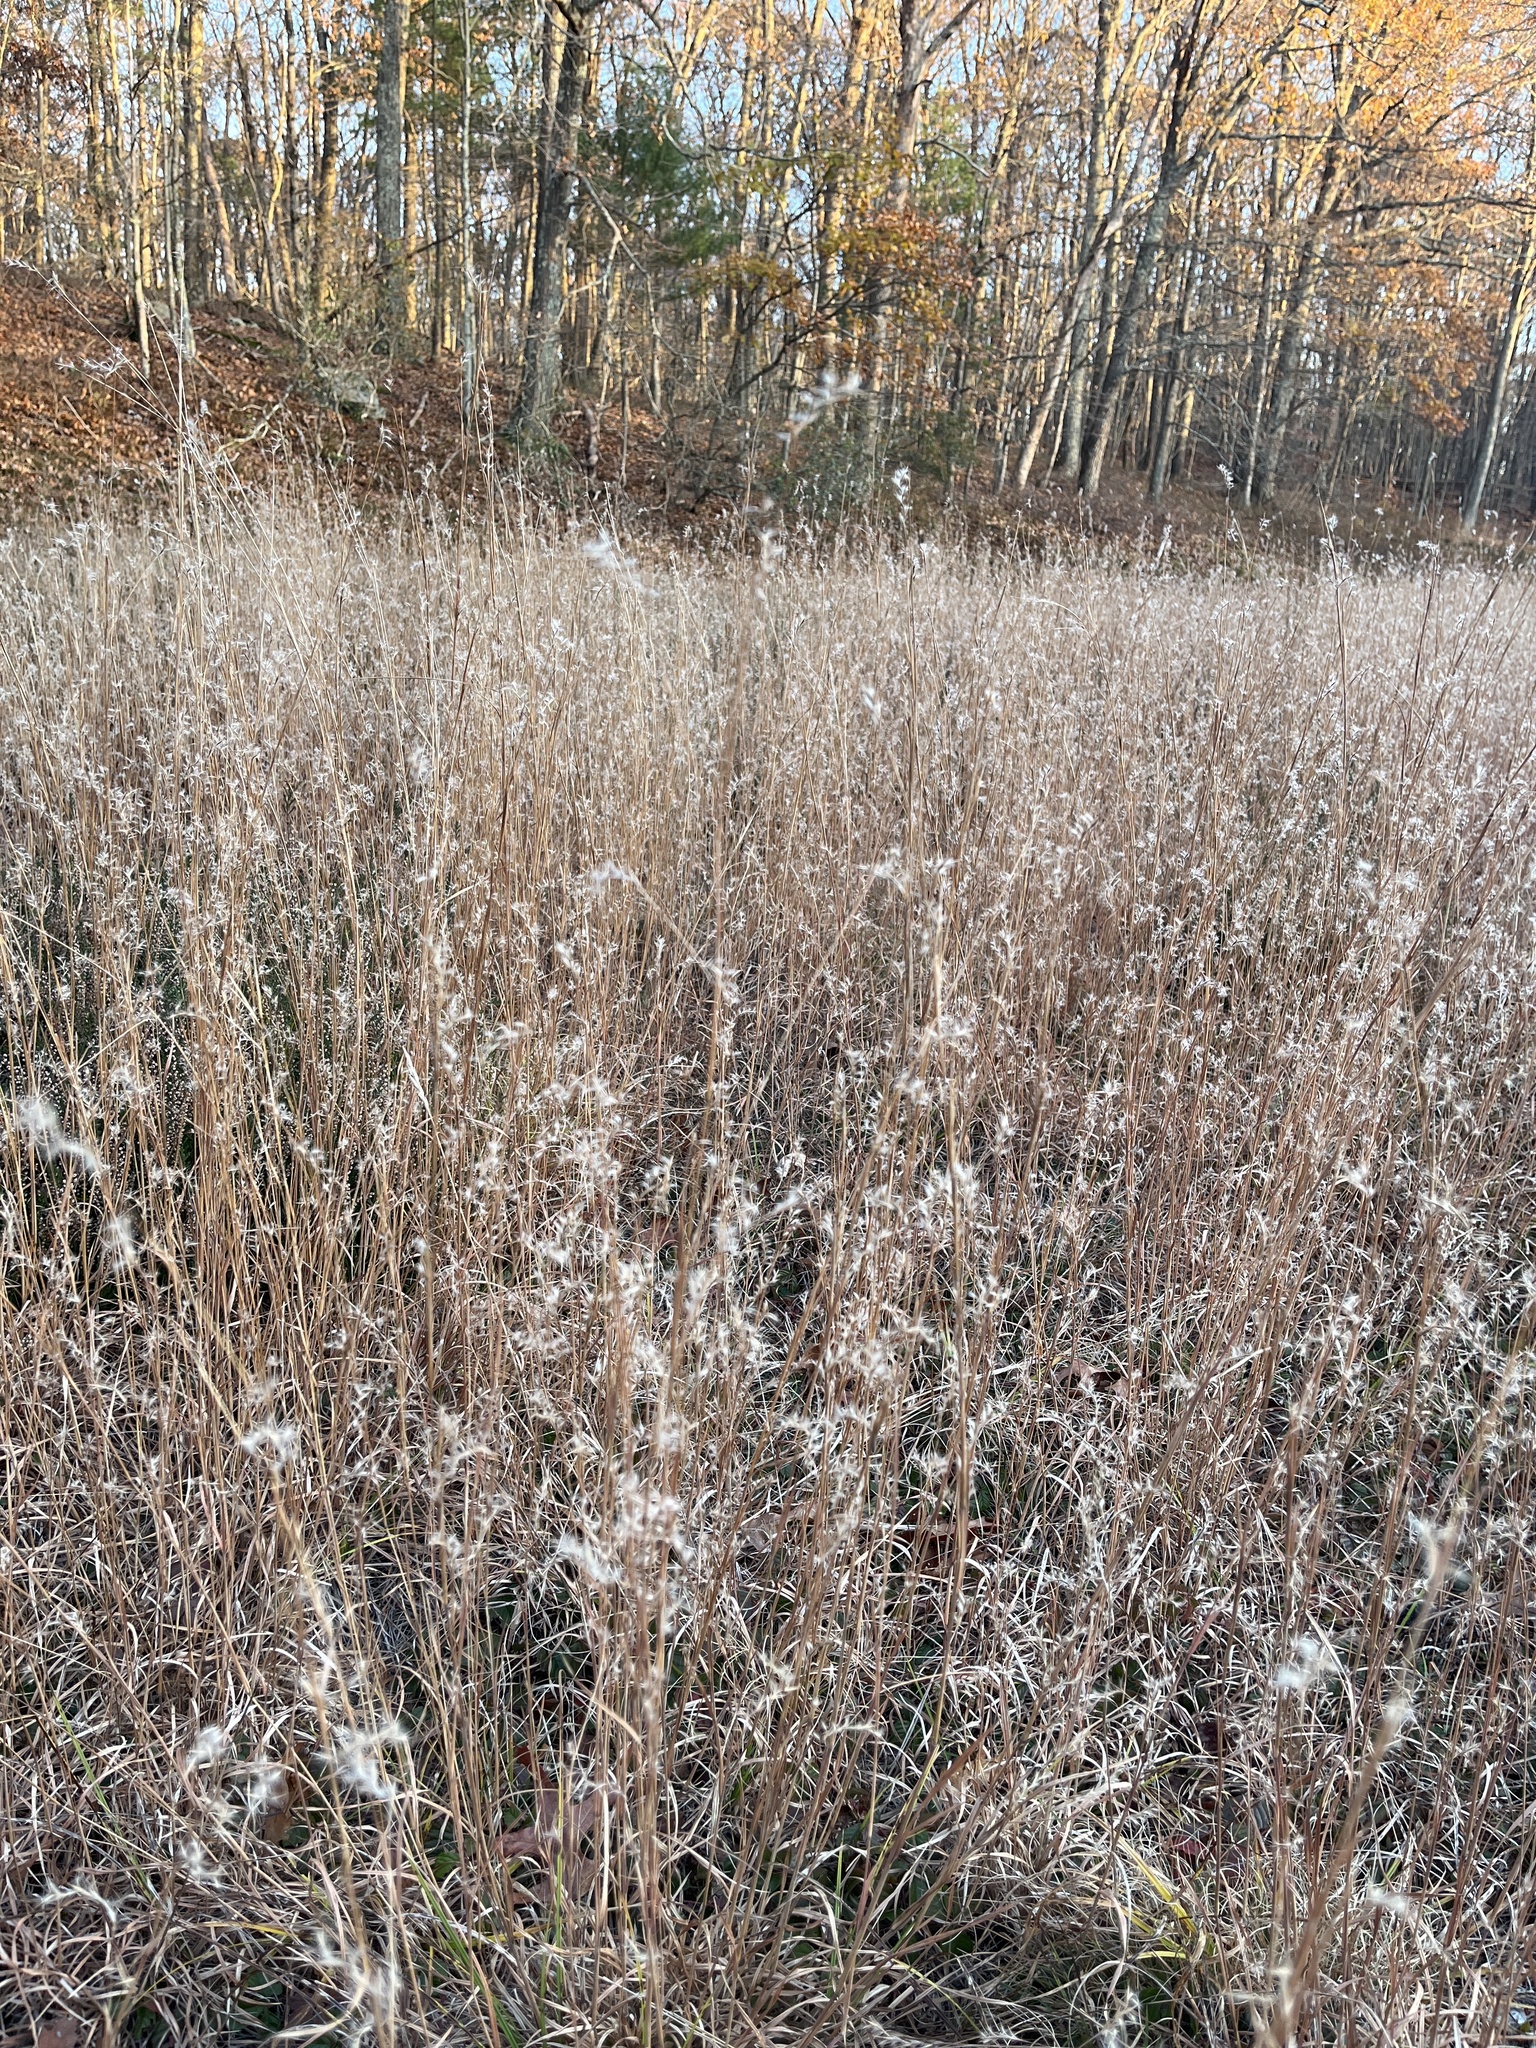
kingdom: Plantae
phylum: Tracheophyta
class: Liliopsida
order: Poales
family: Poaceae
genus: Schizachyrium
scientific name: Schizachyrium scoparium
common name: Little bluestem
